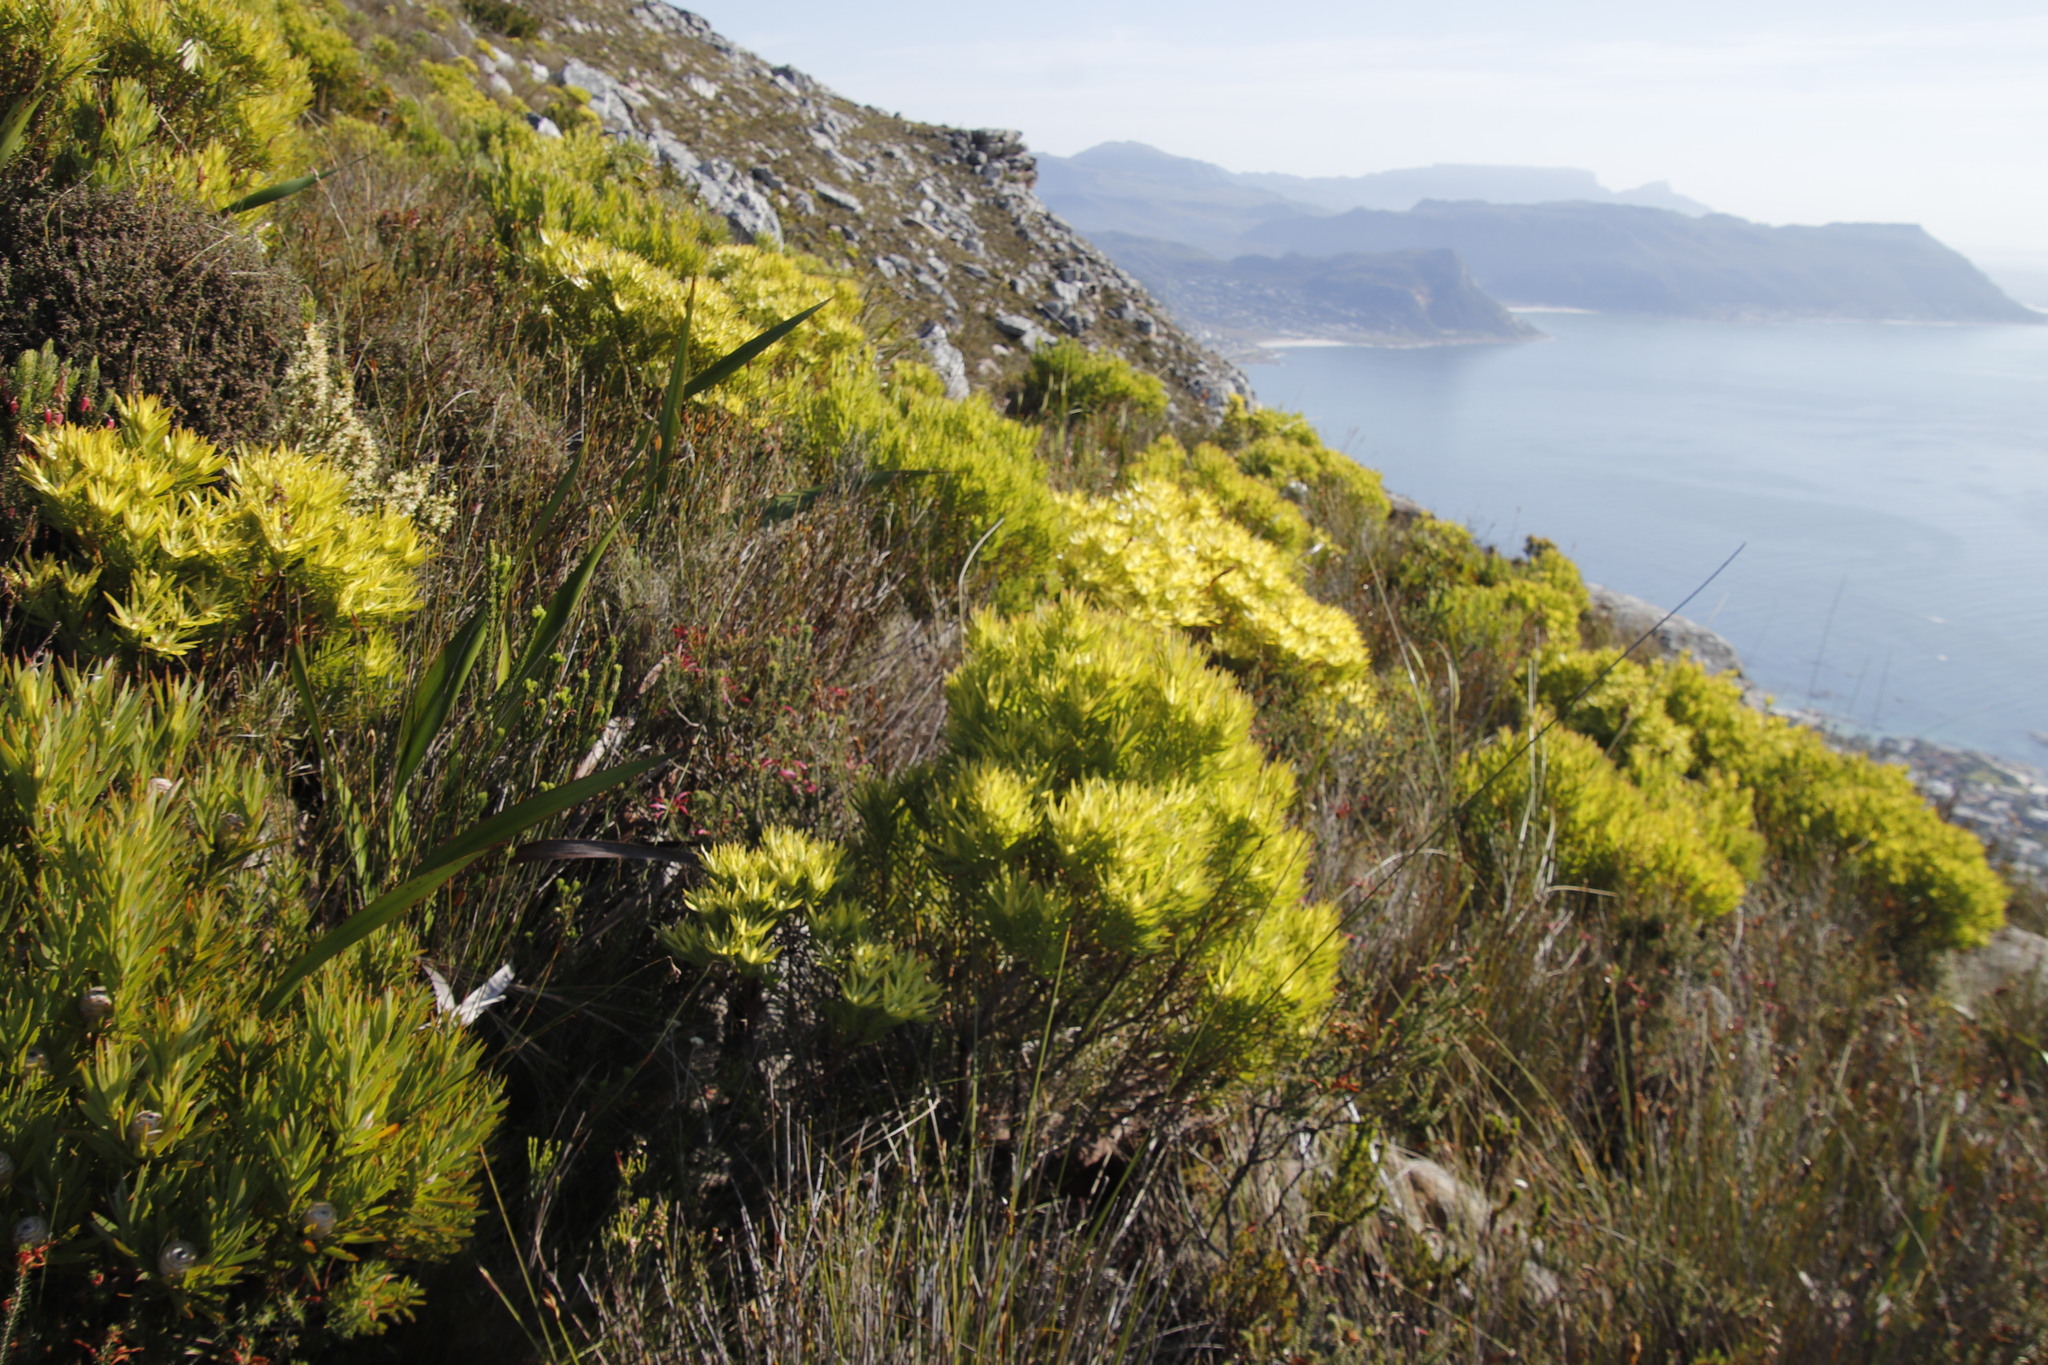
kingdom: Plantae
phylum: Tracheophyta
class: Magnoliopsida
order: Proteales
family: Proteaceae
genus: Leucadendron
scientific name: Leucadendron xanthoconus
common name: Sickle-leaf conebush
